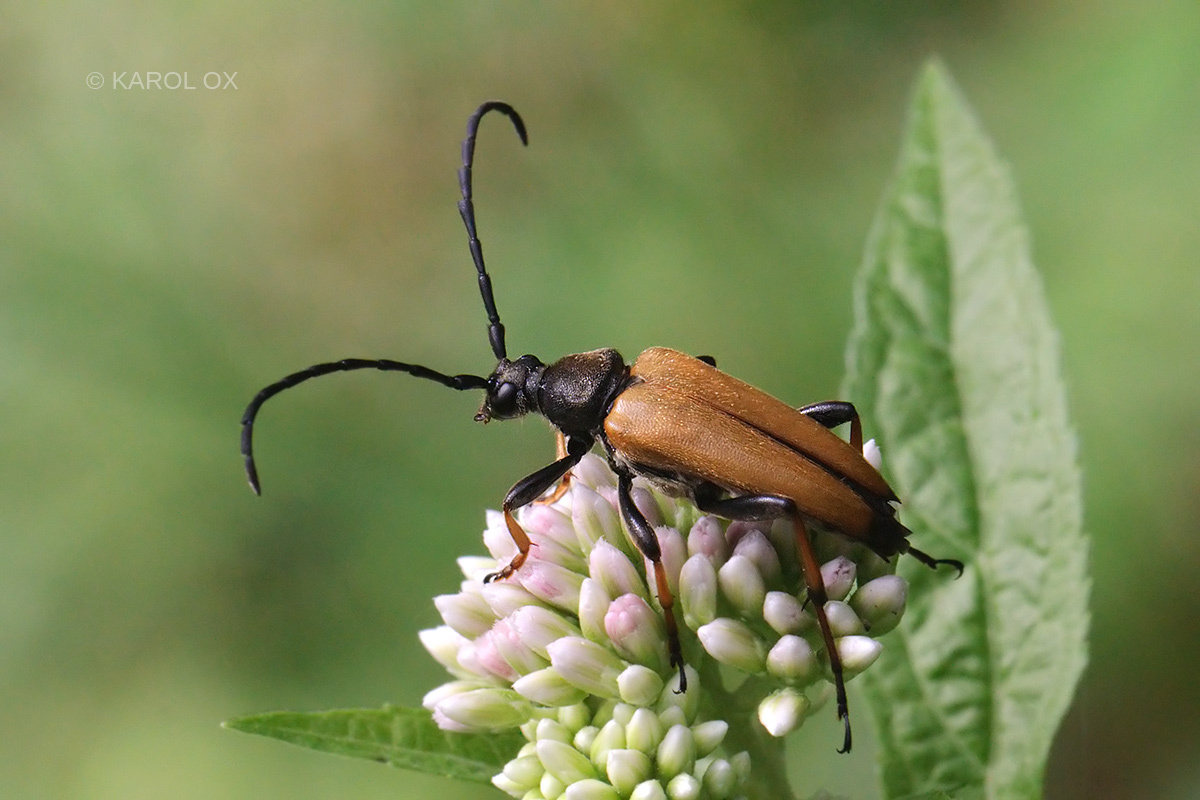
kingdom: Animalia
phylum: Arthropoda
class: Insecta
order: Coleoptera
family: Cerambycidae
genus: Stictoleptura
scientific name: Stictoleptura rubra
